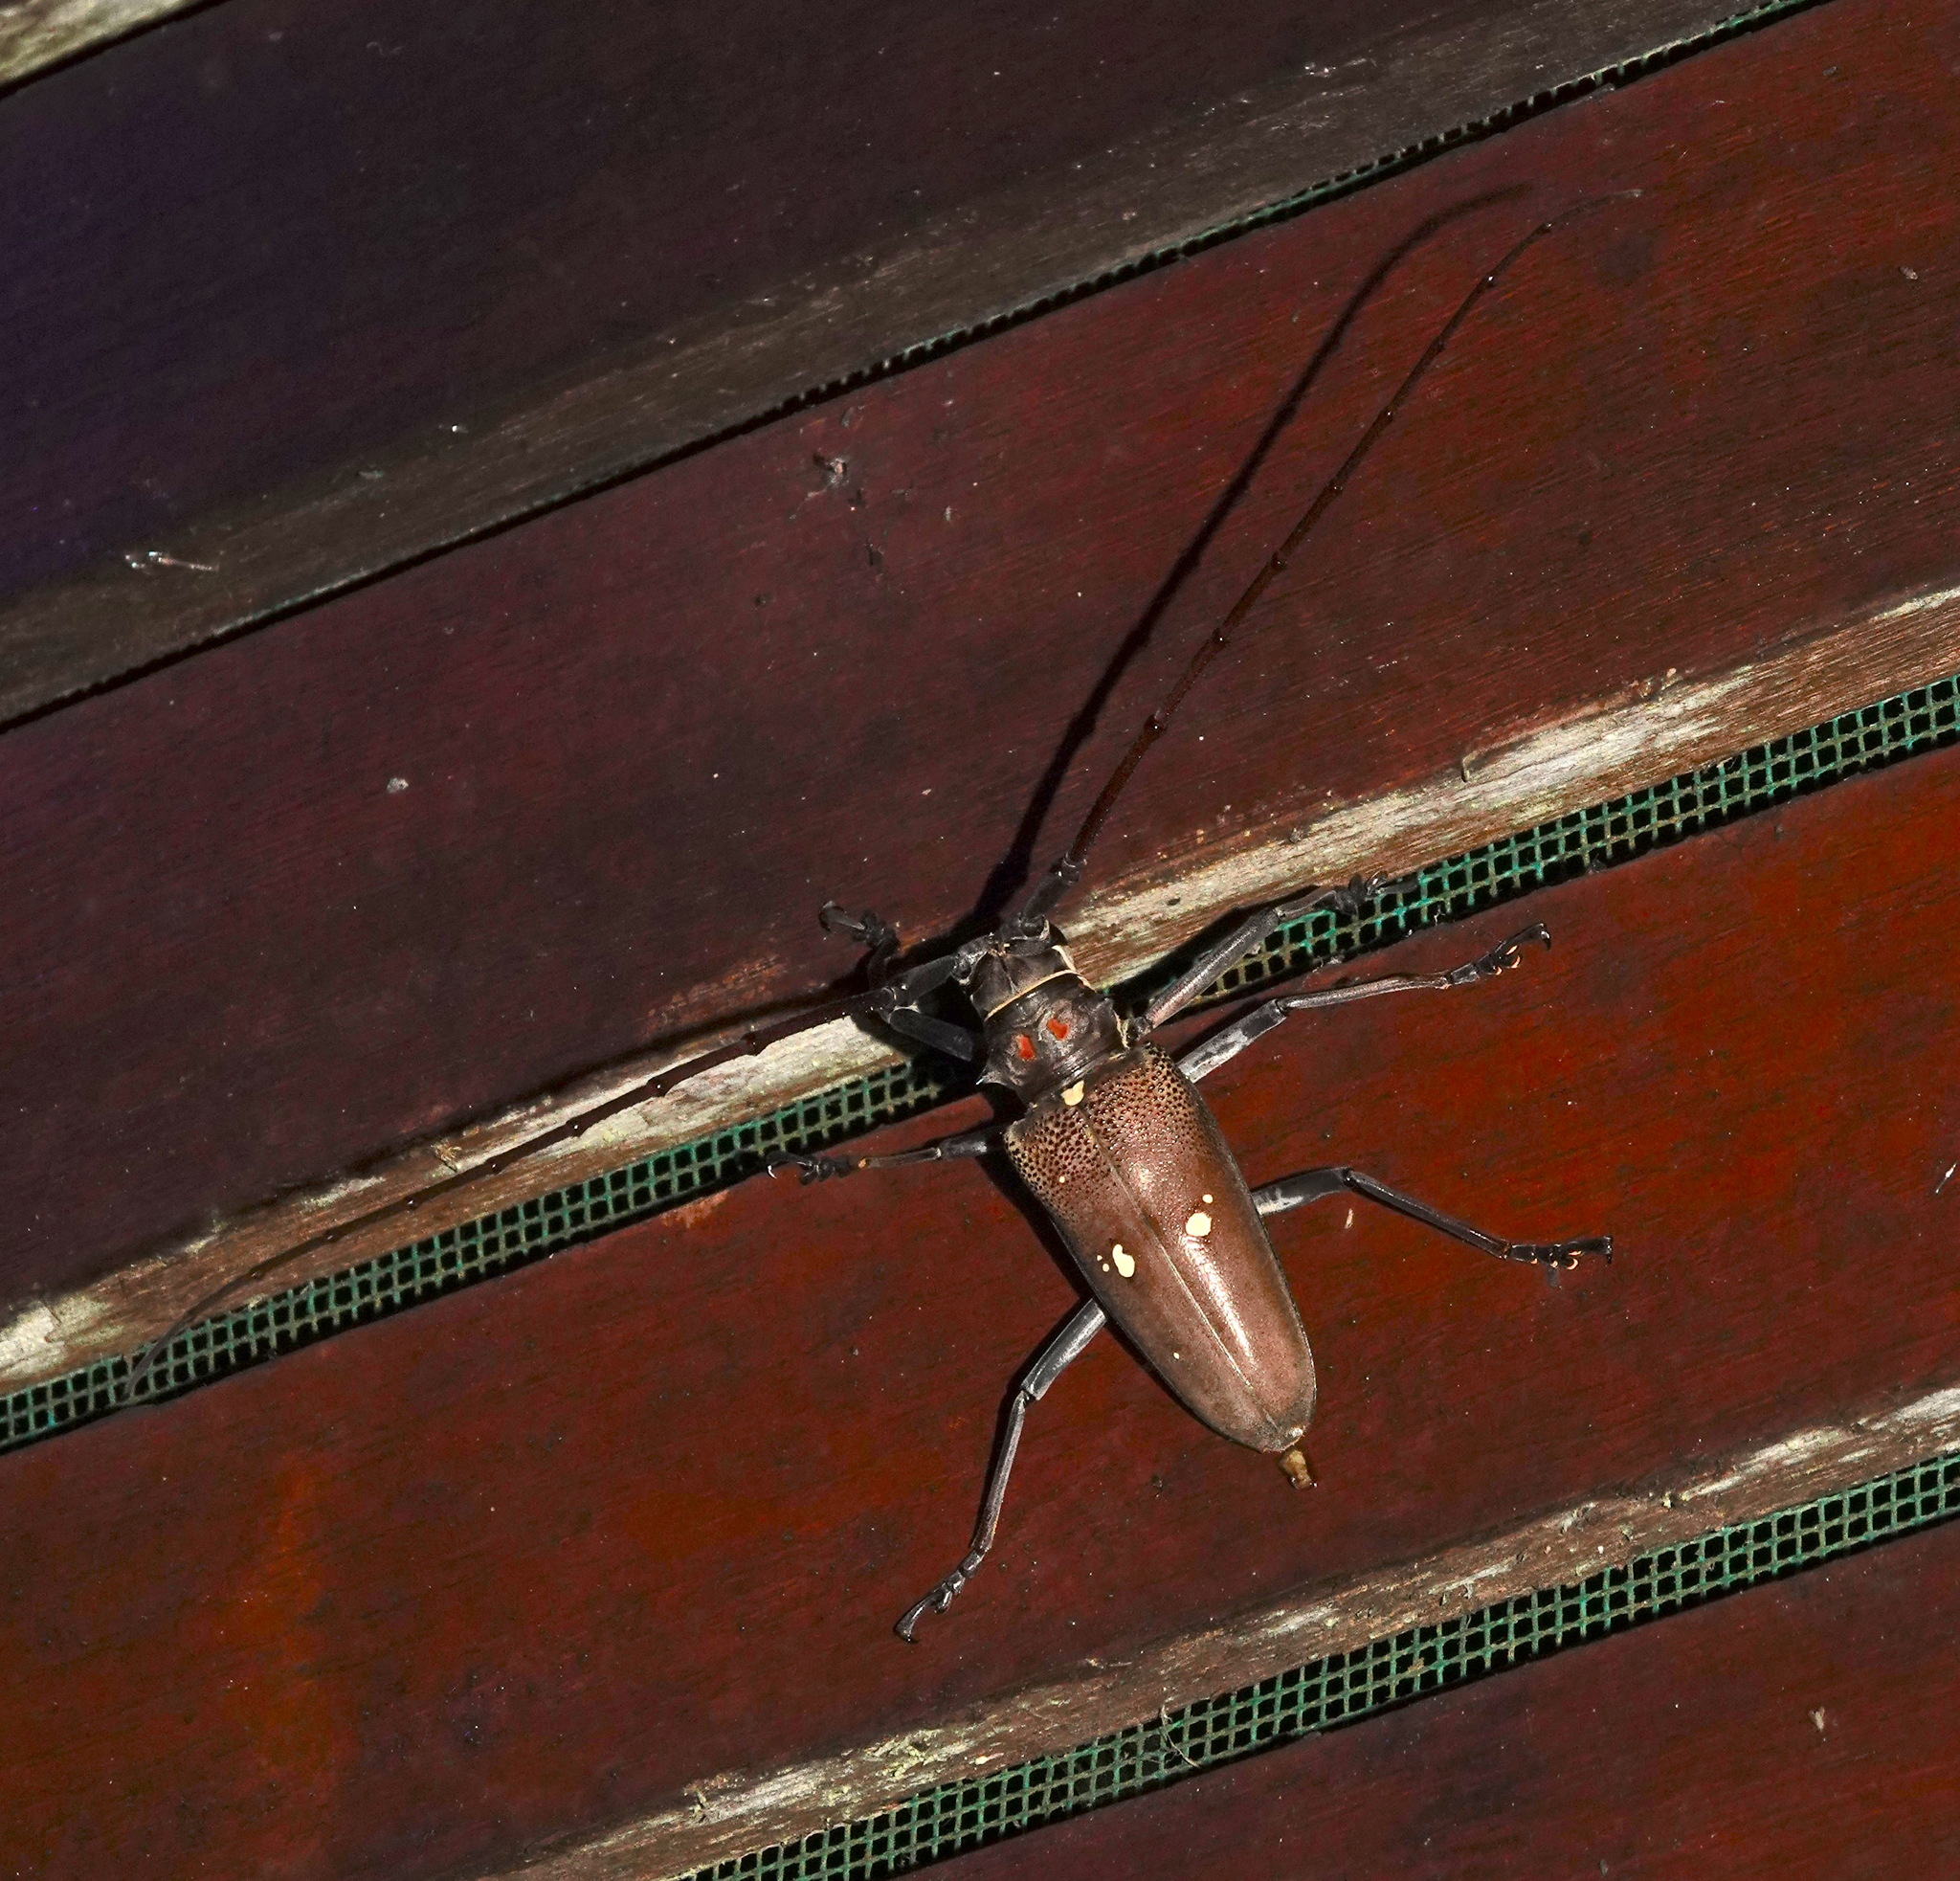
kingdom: Animalia
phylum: Arthropoda
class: Insecta
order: Coleoptera
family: Cerambycidae
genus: Batocera
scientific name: Batocera thomsonii
